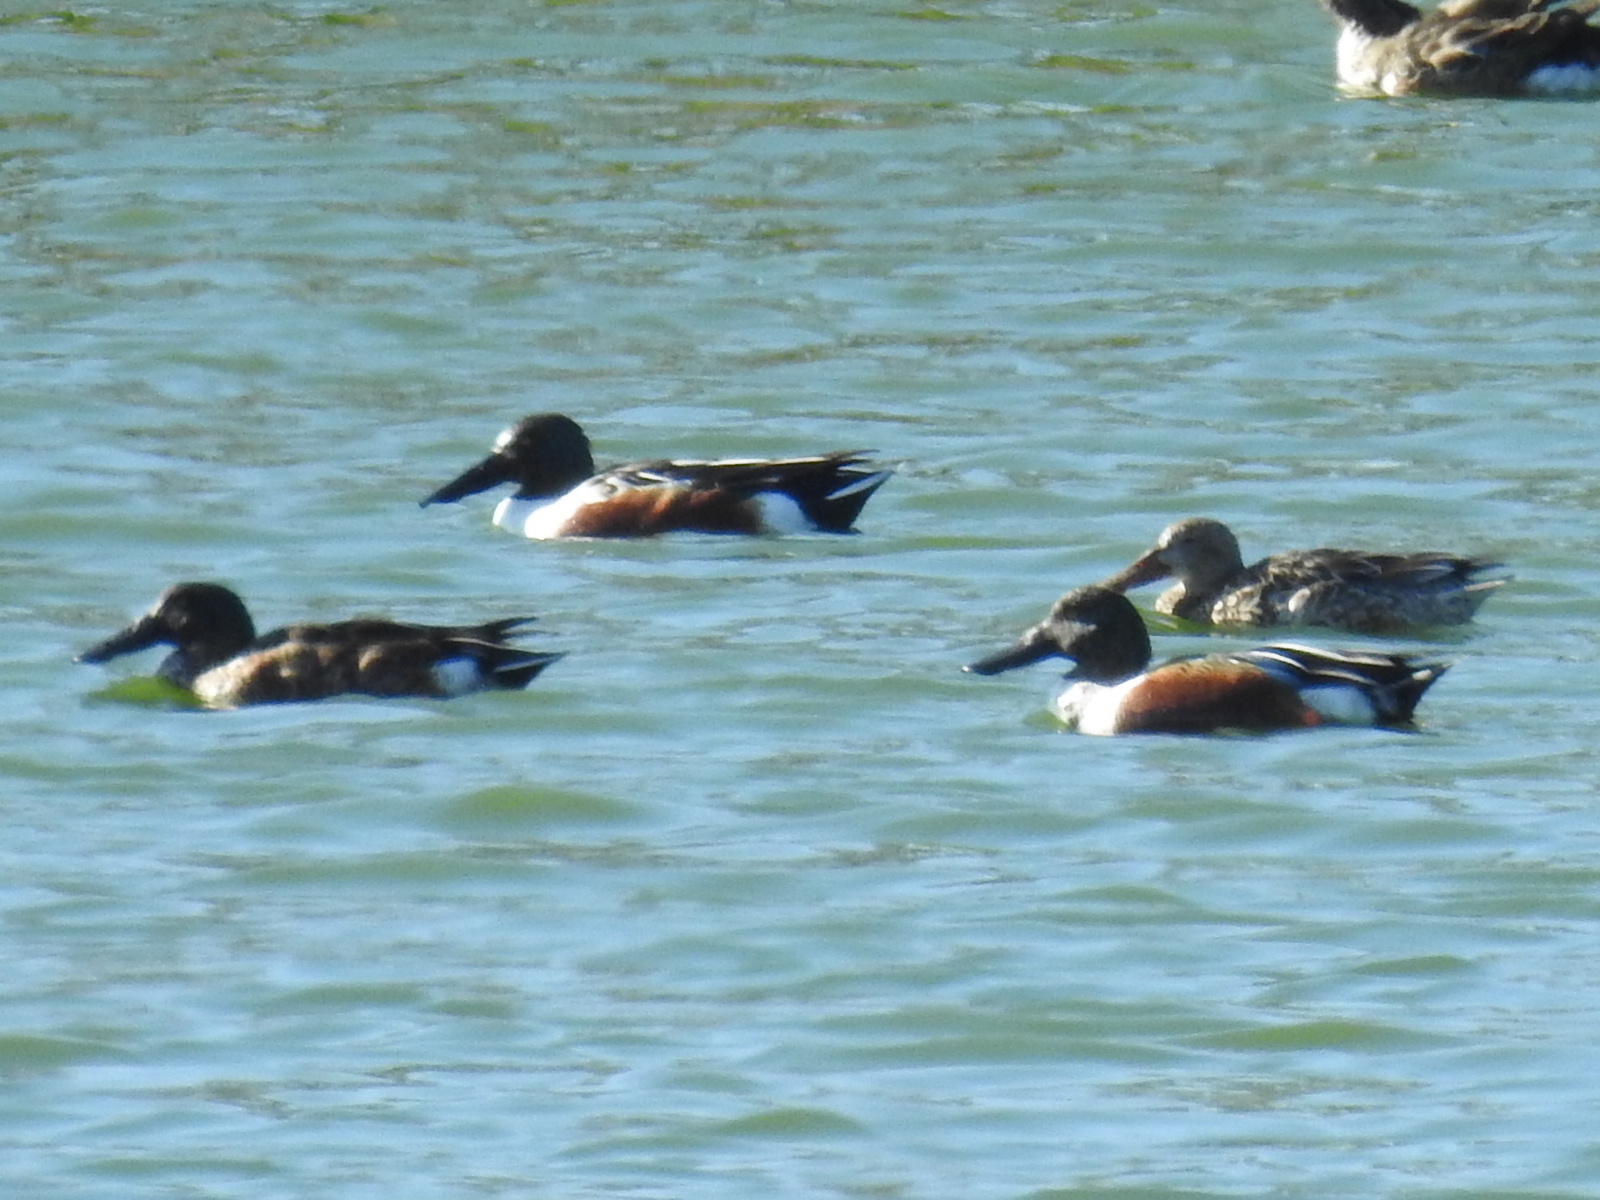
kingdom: Animalia
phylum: Chordata
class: Aves
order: Anseriformes
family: Anatidae
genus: Spatula
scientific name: Spatula clypeata
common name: Northern shoveler
